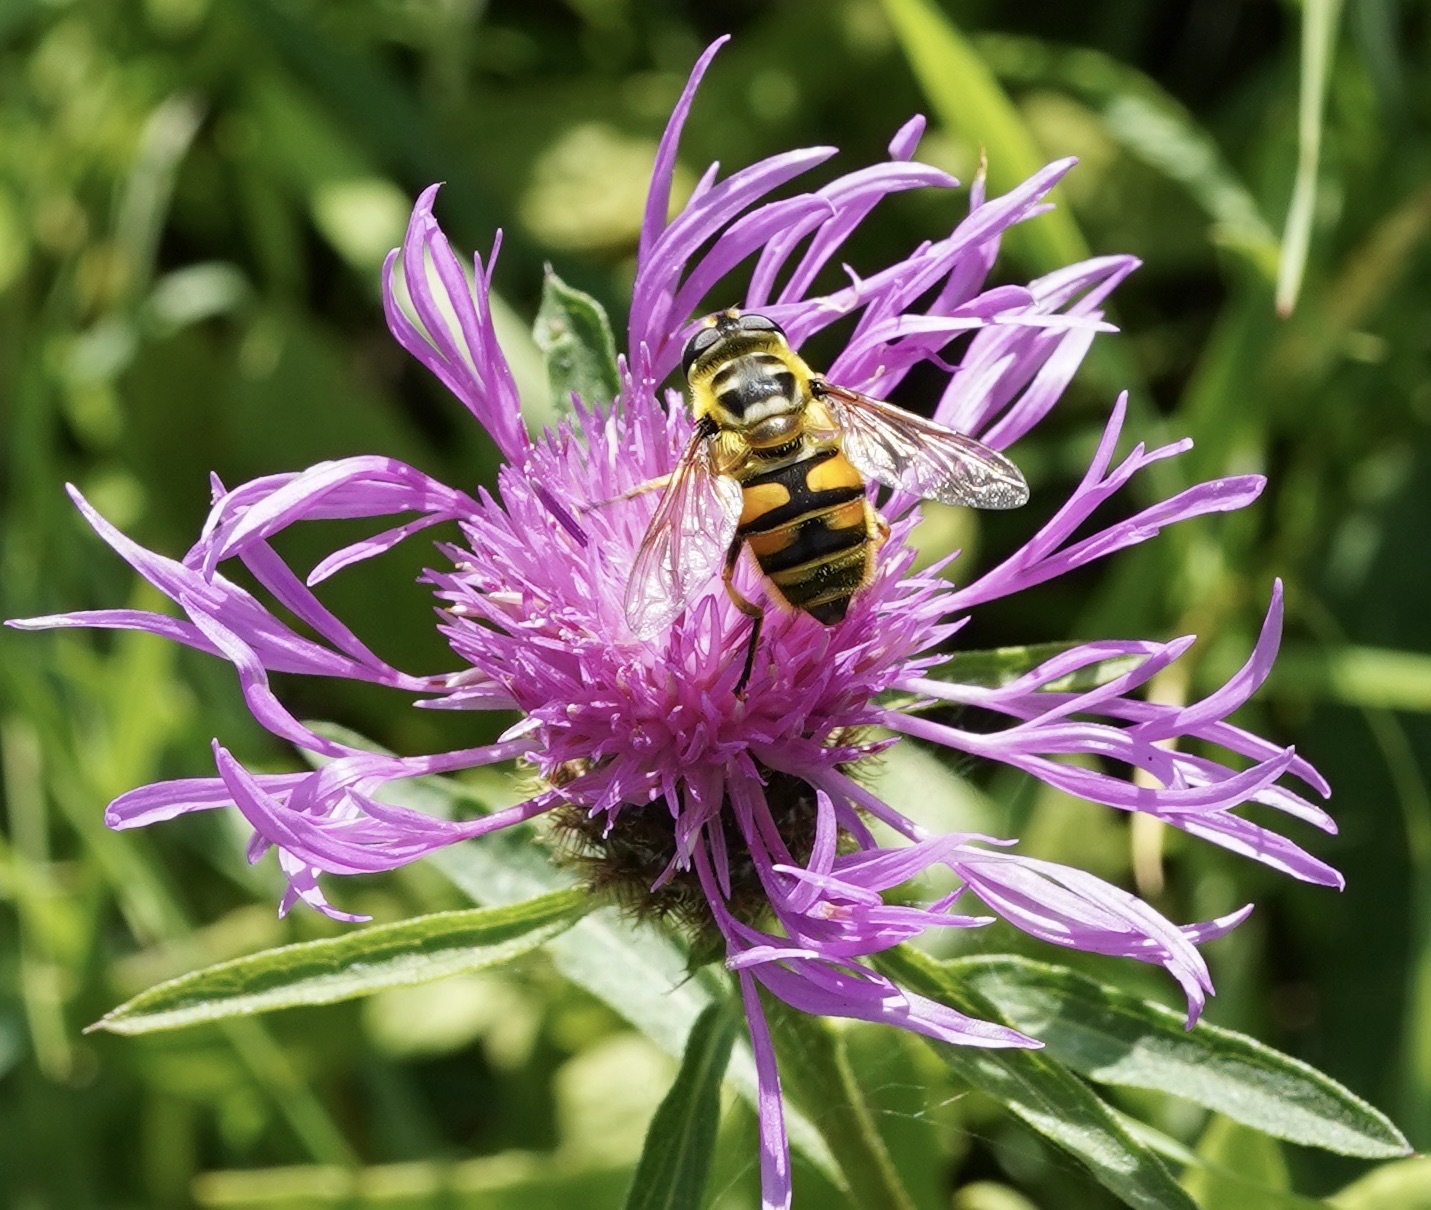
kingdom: Animalia
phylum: Arthropoda
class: Insecta
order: Diptera
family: Syrphidae
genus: Myathropa
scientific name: Myathropa florea
